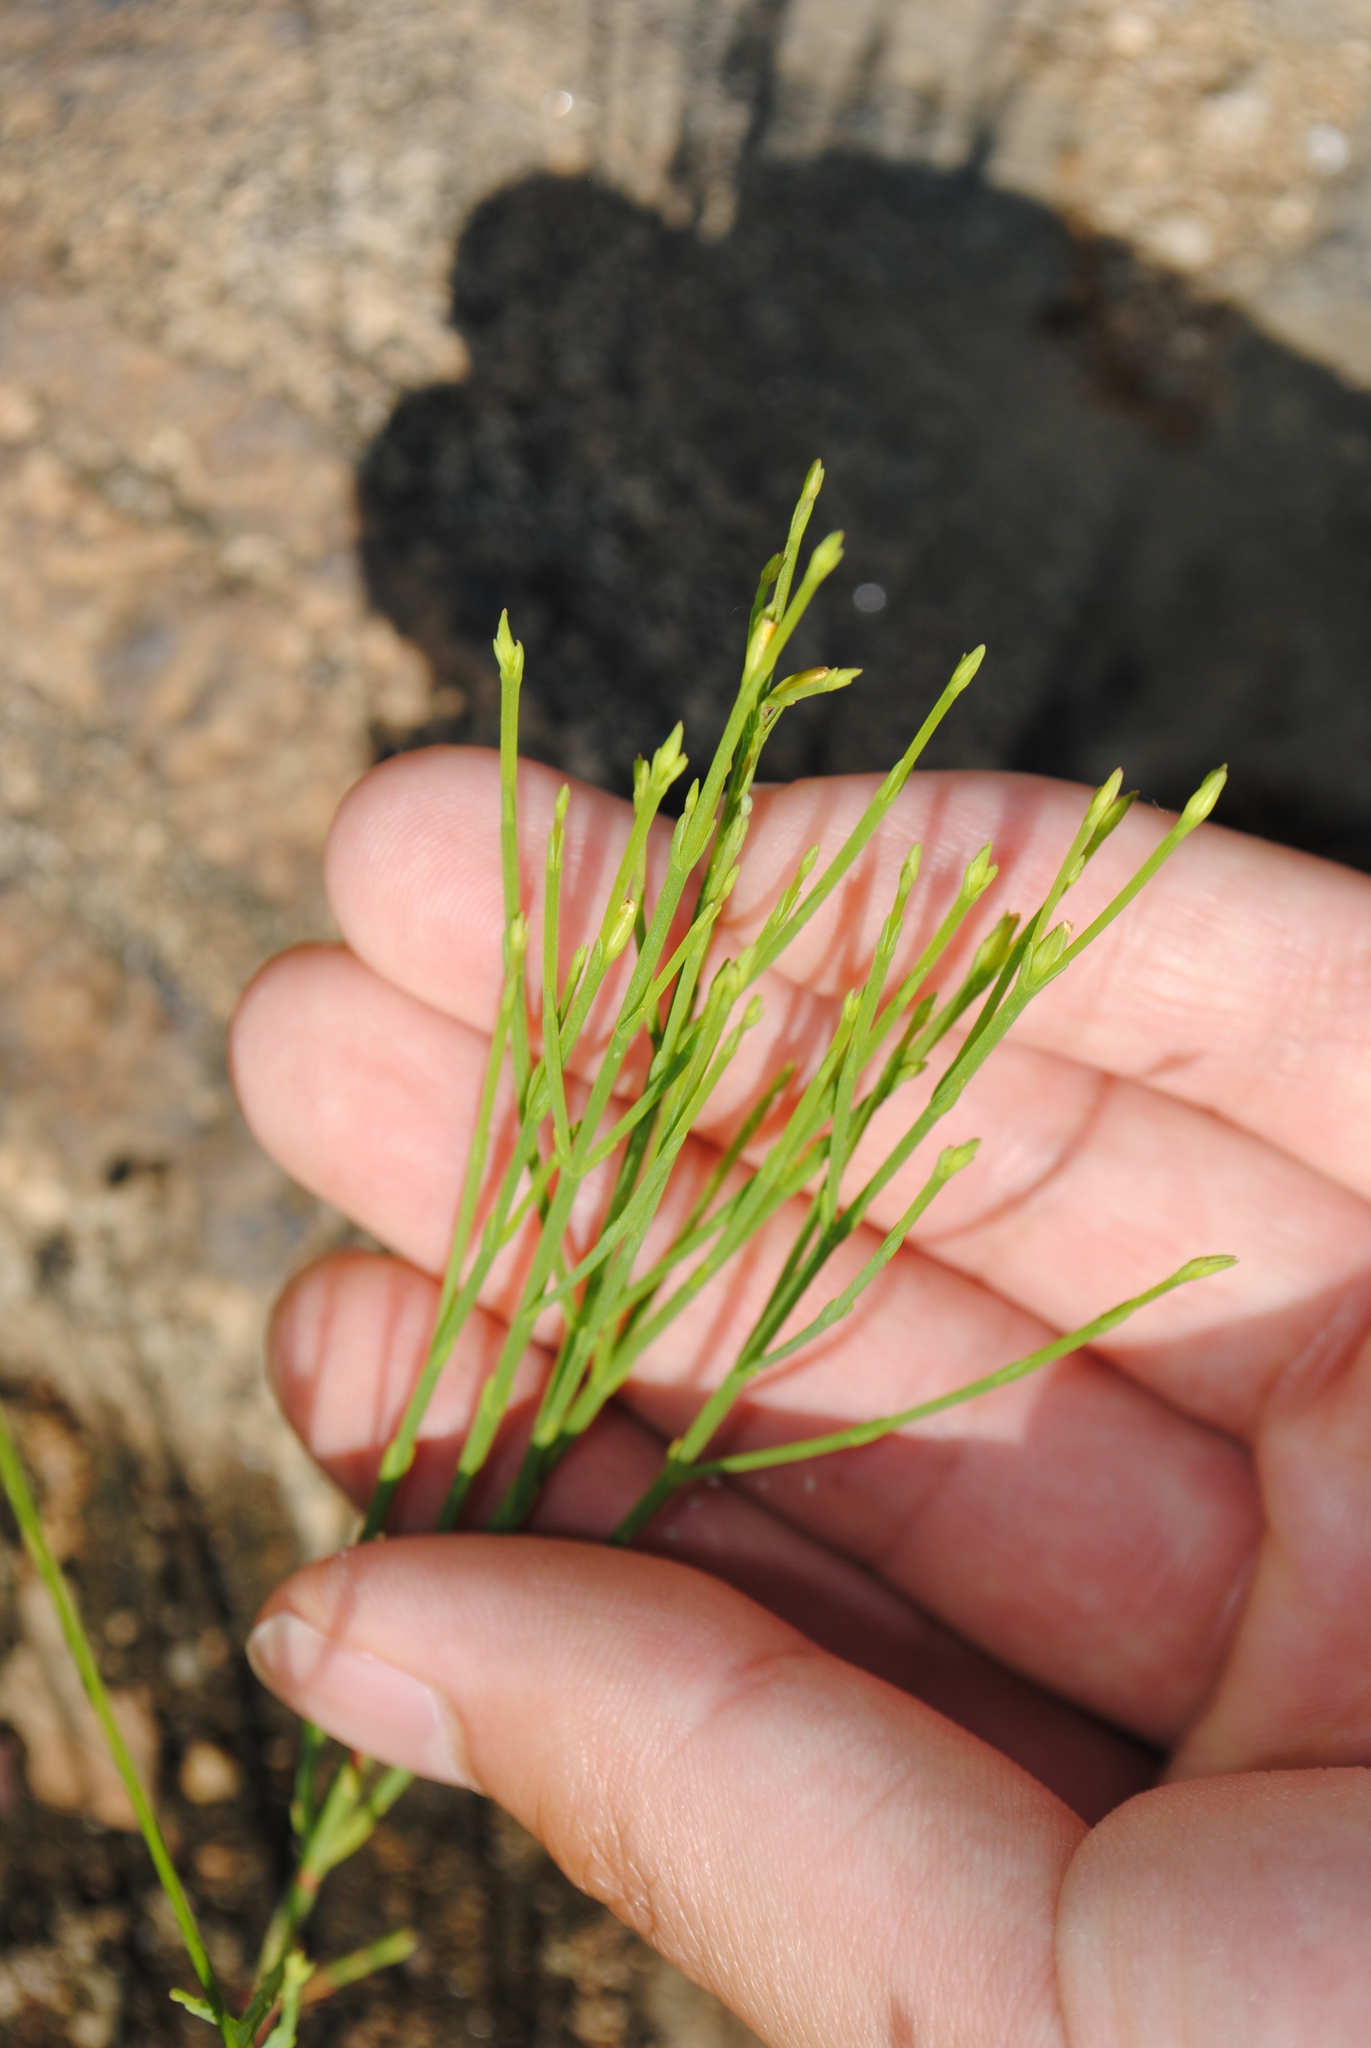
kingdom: Plantae
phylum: Tracheophyta
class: Magnoliopsida
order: Malpighiales
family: Hypericaceae
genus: Hypericum
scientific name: Hypericum gentianoides
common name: Gentian-leaved st. john's-wort
